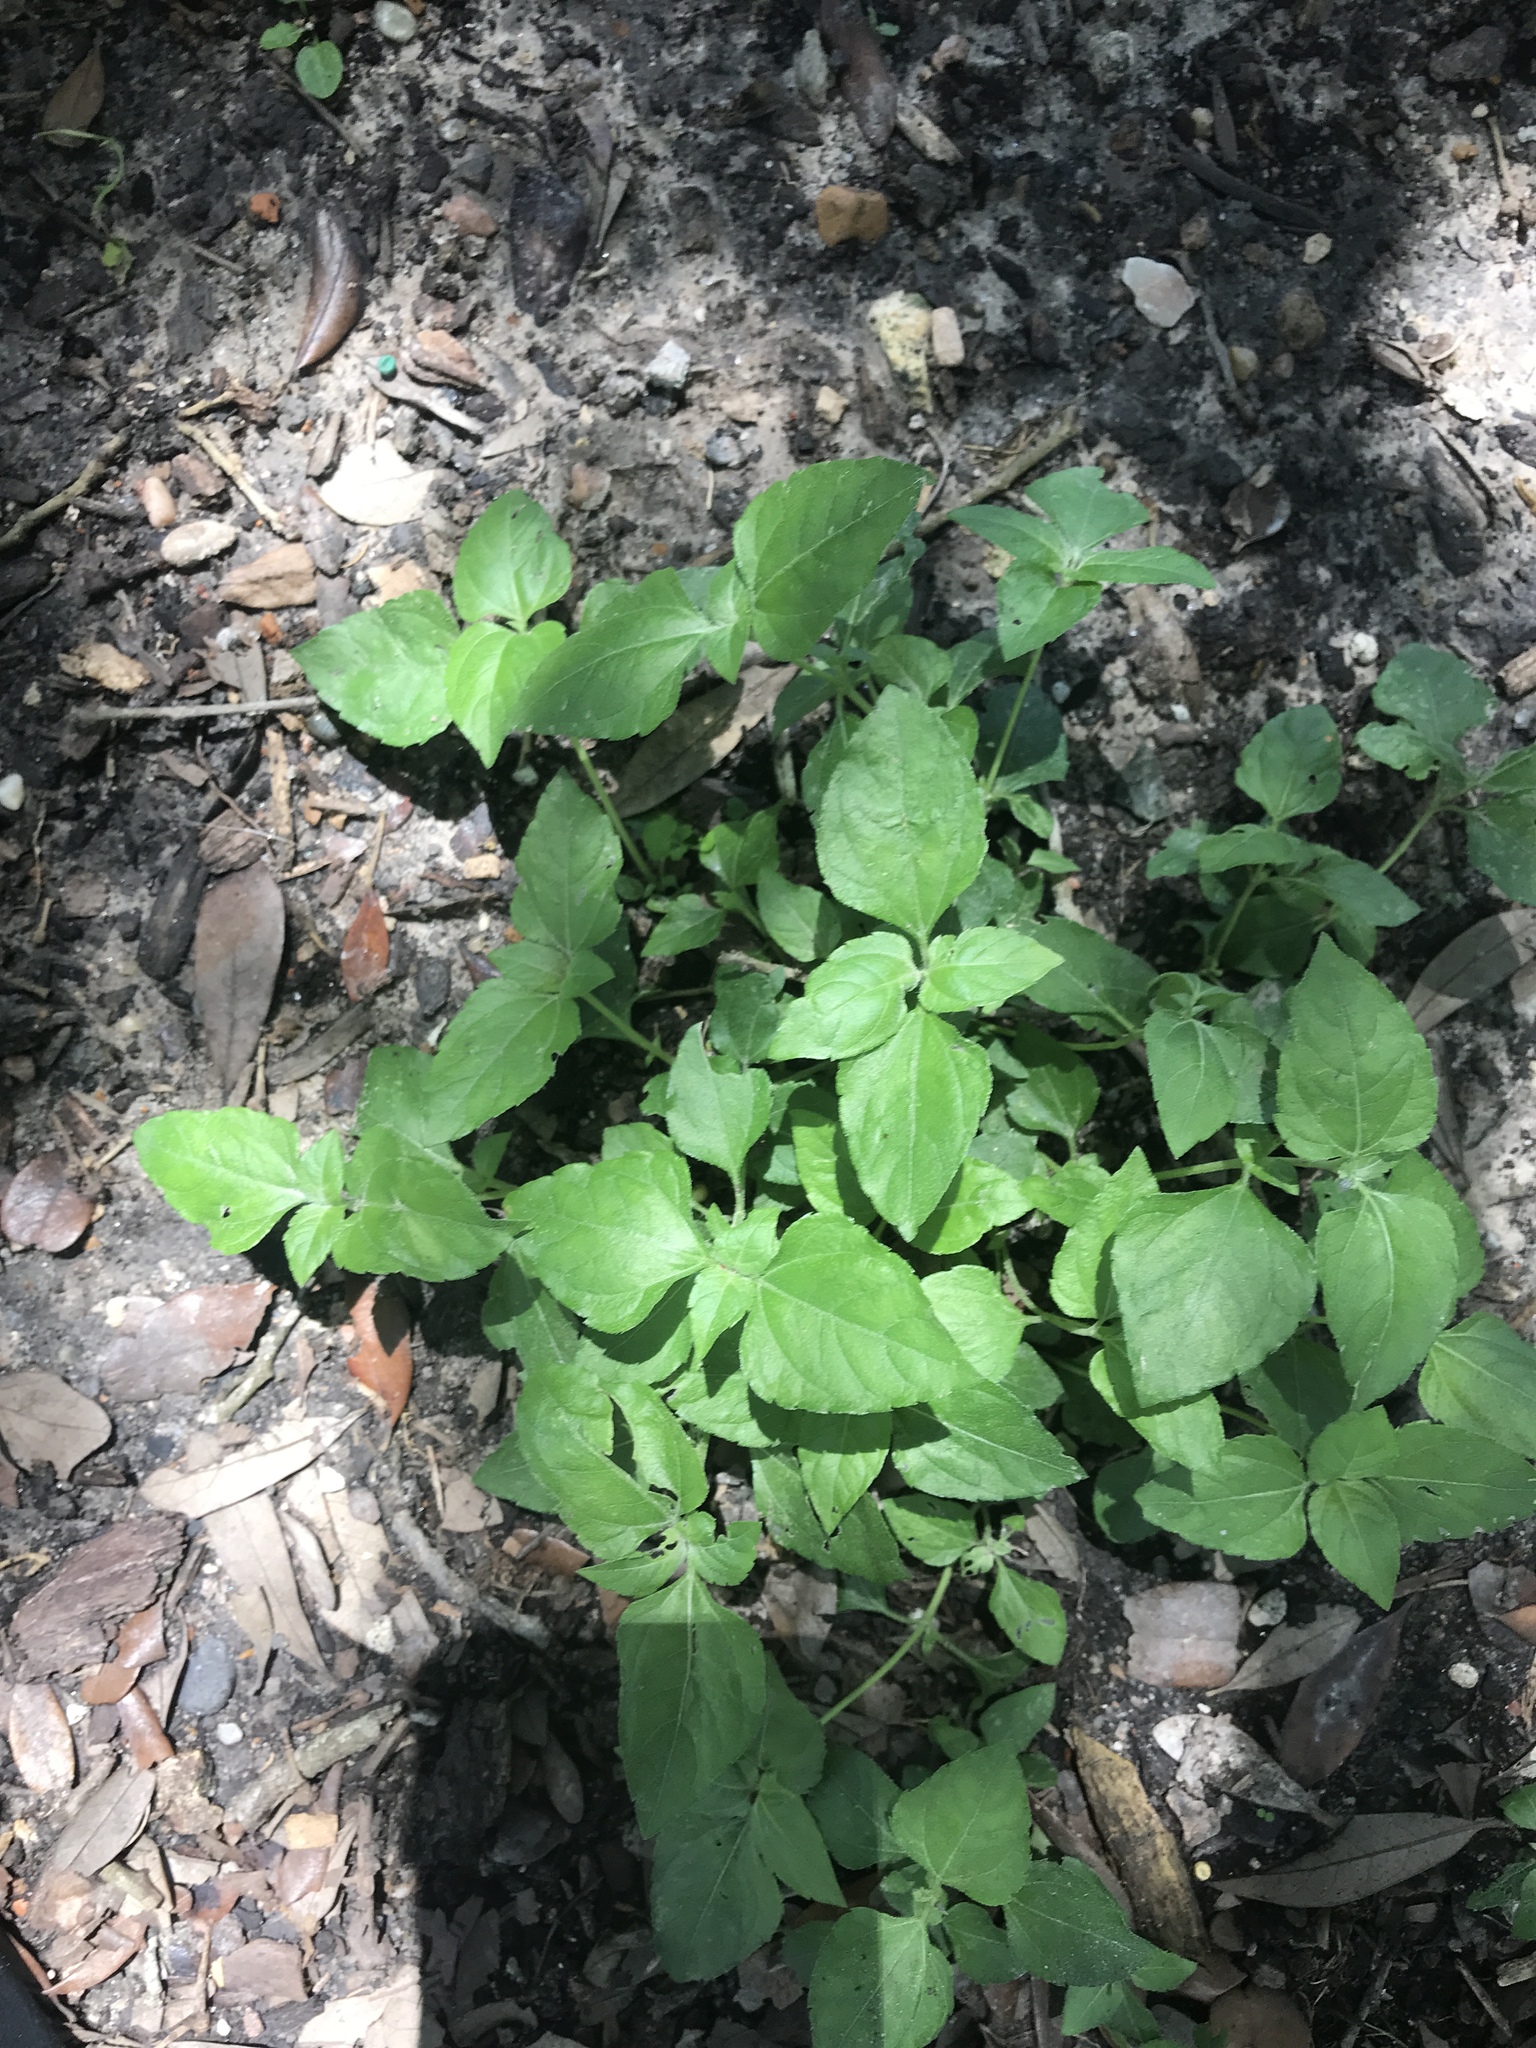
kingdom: Plantae
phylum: Tracheophyta
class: Magnoliopsida
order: Asterales
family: Asteraceae
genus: Calyptocarpus
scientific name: Calyptocarpus vialis
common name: Straggler daisy
